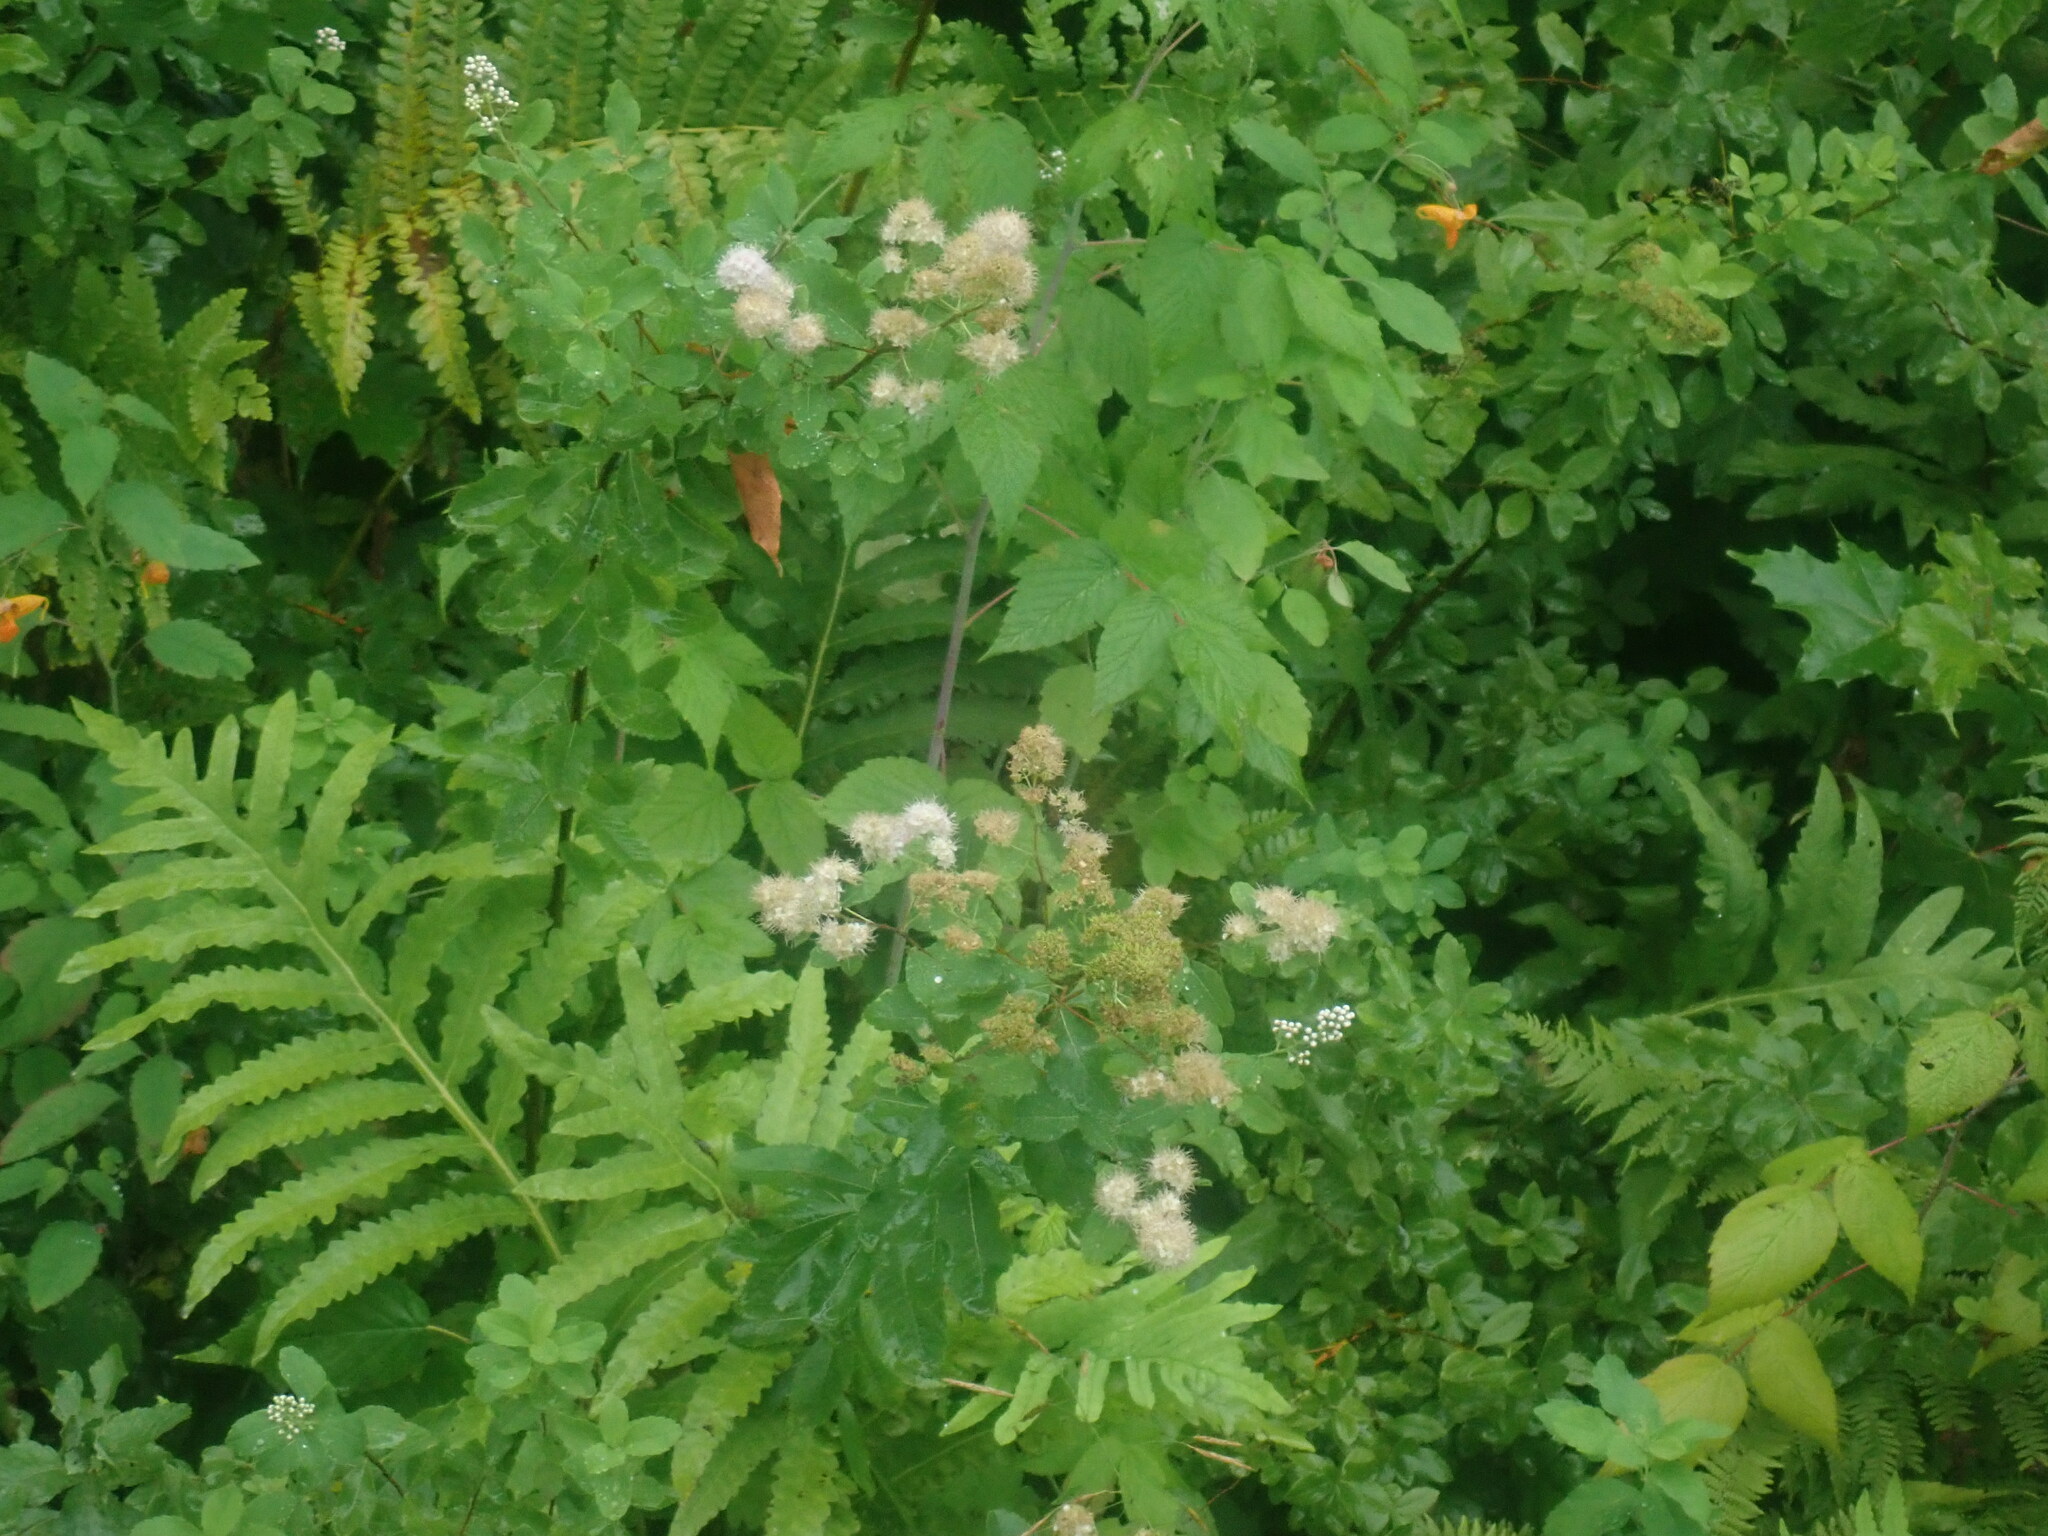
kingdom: Plantae
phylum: Tracheophyta
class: Magnoliopsida
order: Rosales
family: Rosaceae
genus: Spiraea
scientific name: Spiraea alba
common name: Pale bridewort
